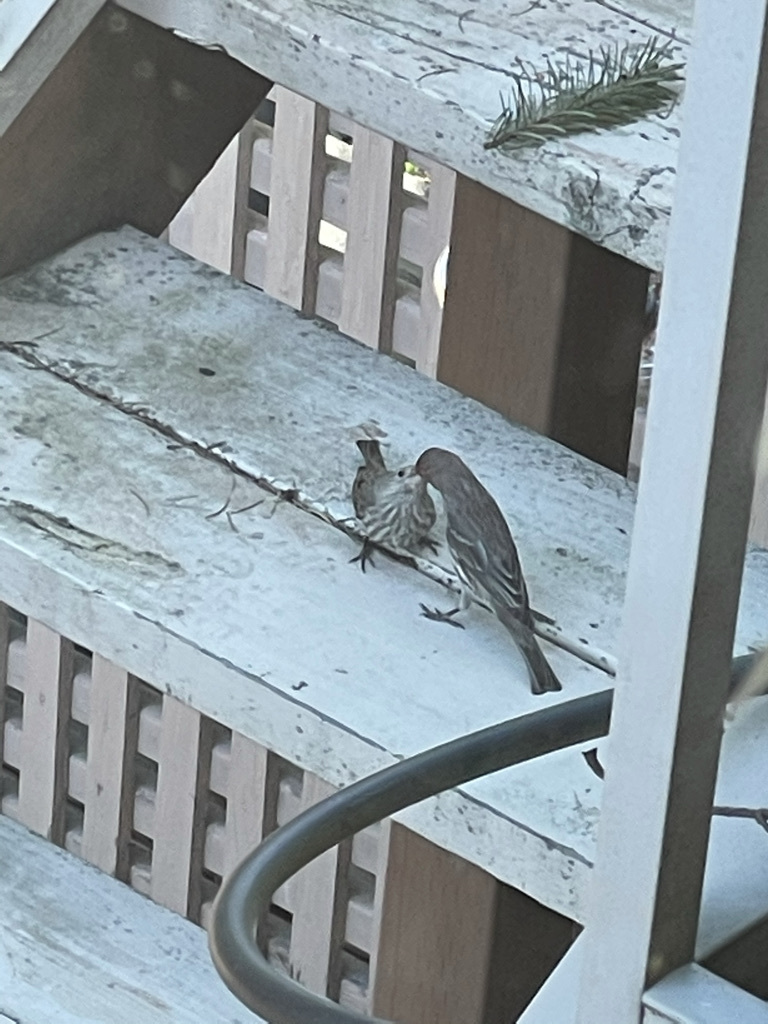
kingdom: Animalia
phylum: Chordata
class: Aves
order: Passeriformes
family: Fringillidae
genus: Haemorhous
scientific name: Haemorhous mexicanus
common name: House finch
